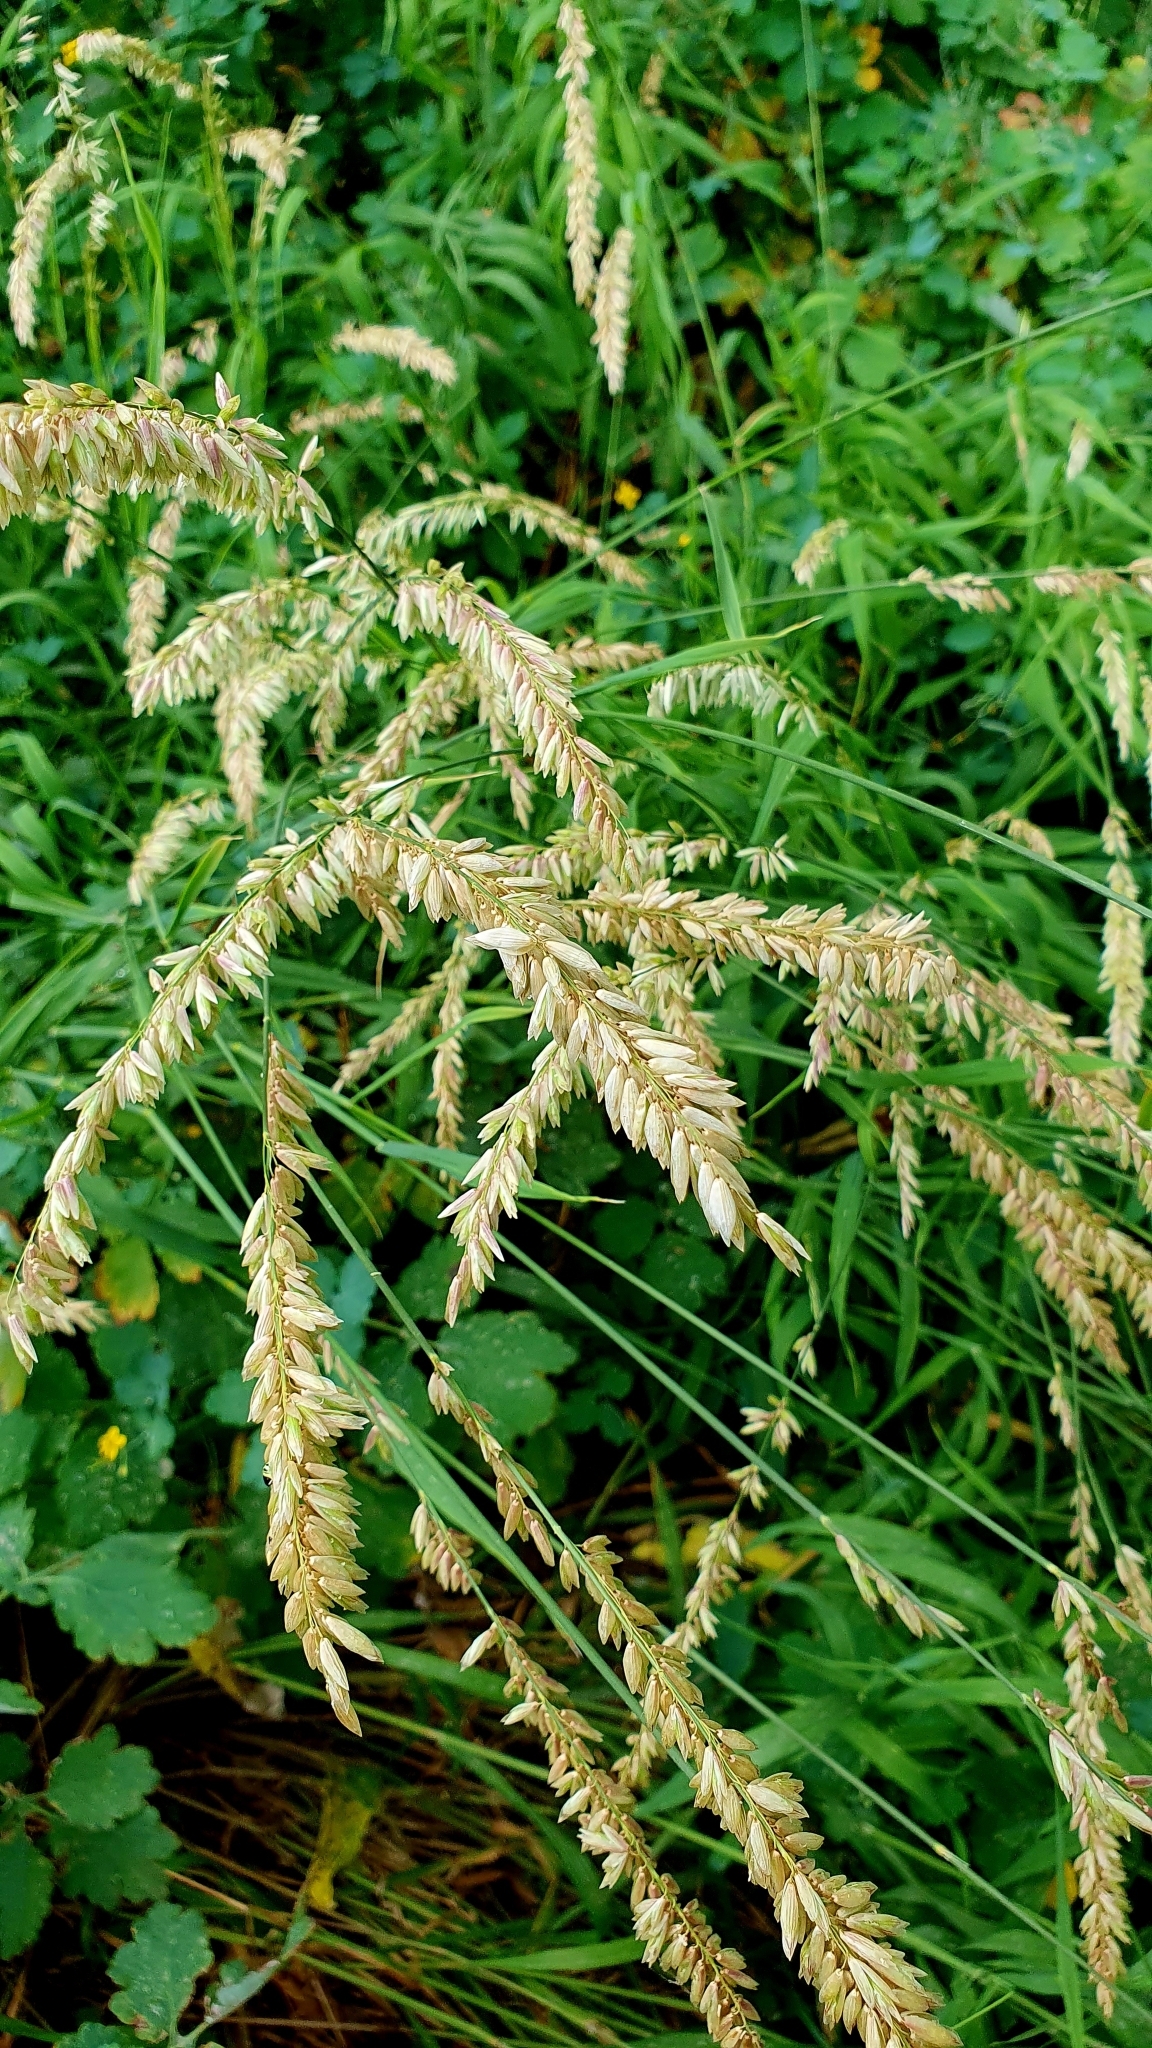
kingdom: Plantae
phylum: Tracheophyta
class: Liliopsida
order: Poales
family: Poaceae
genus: Melica
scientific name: Melica altissima
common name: Siberian melicgrass
